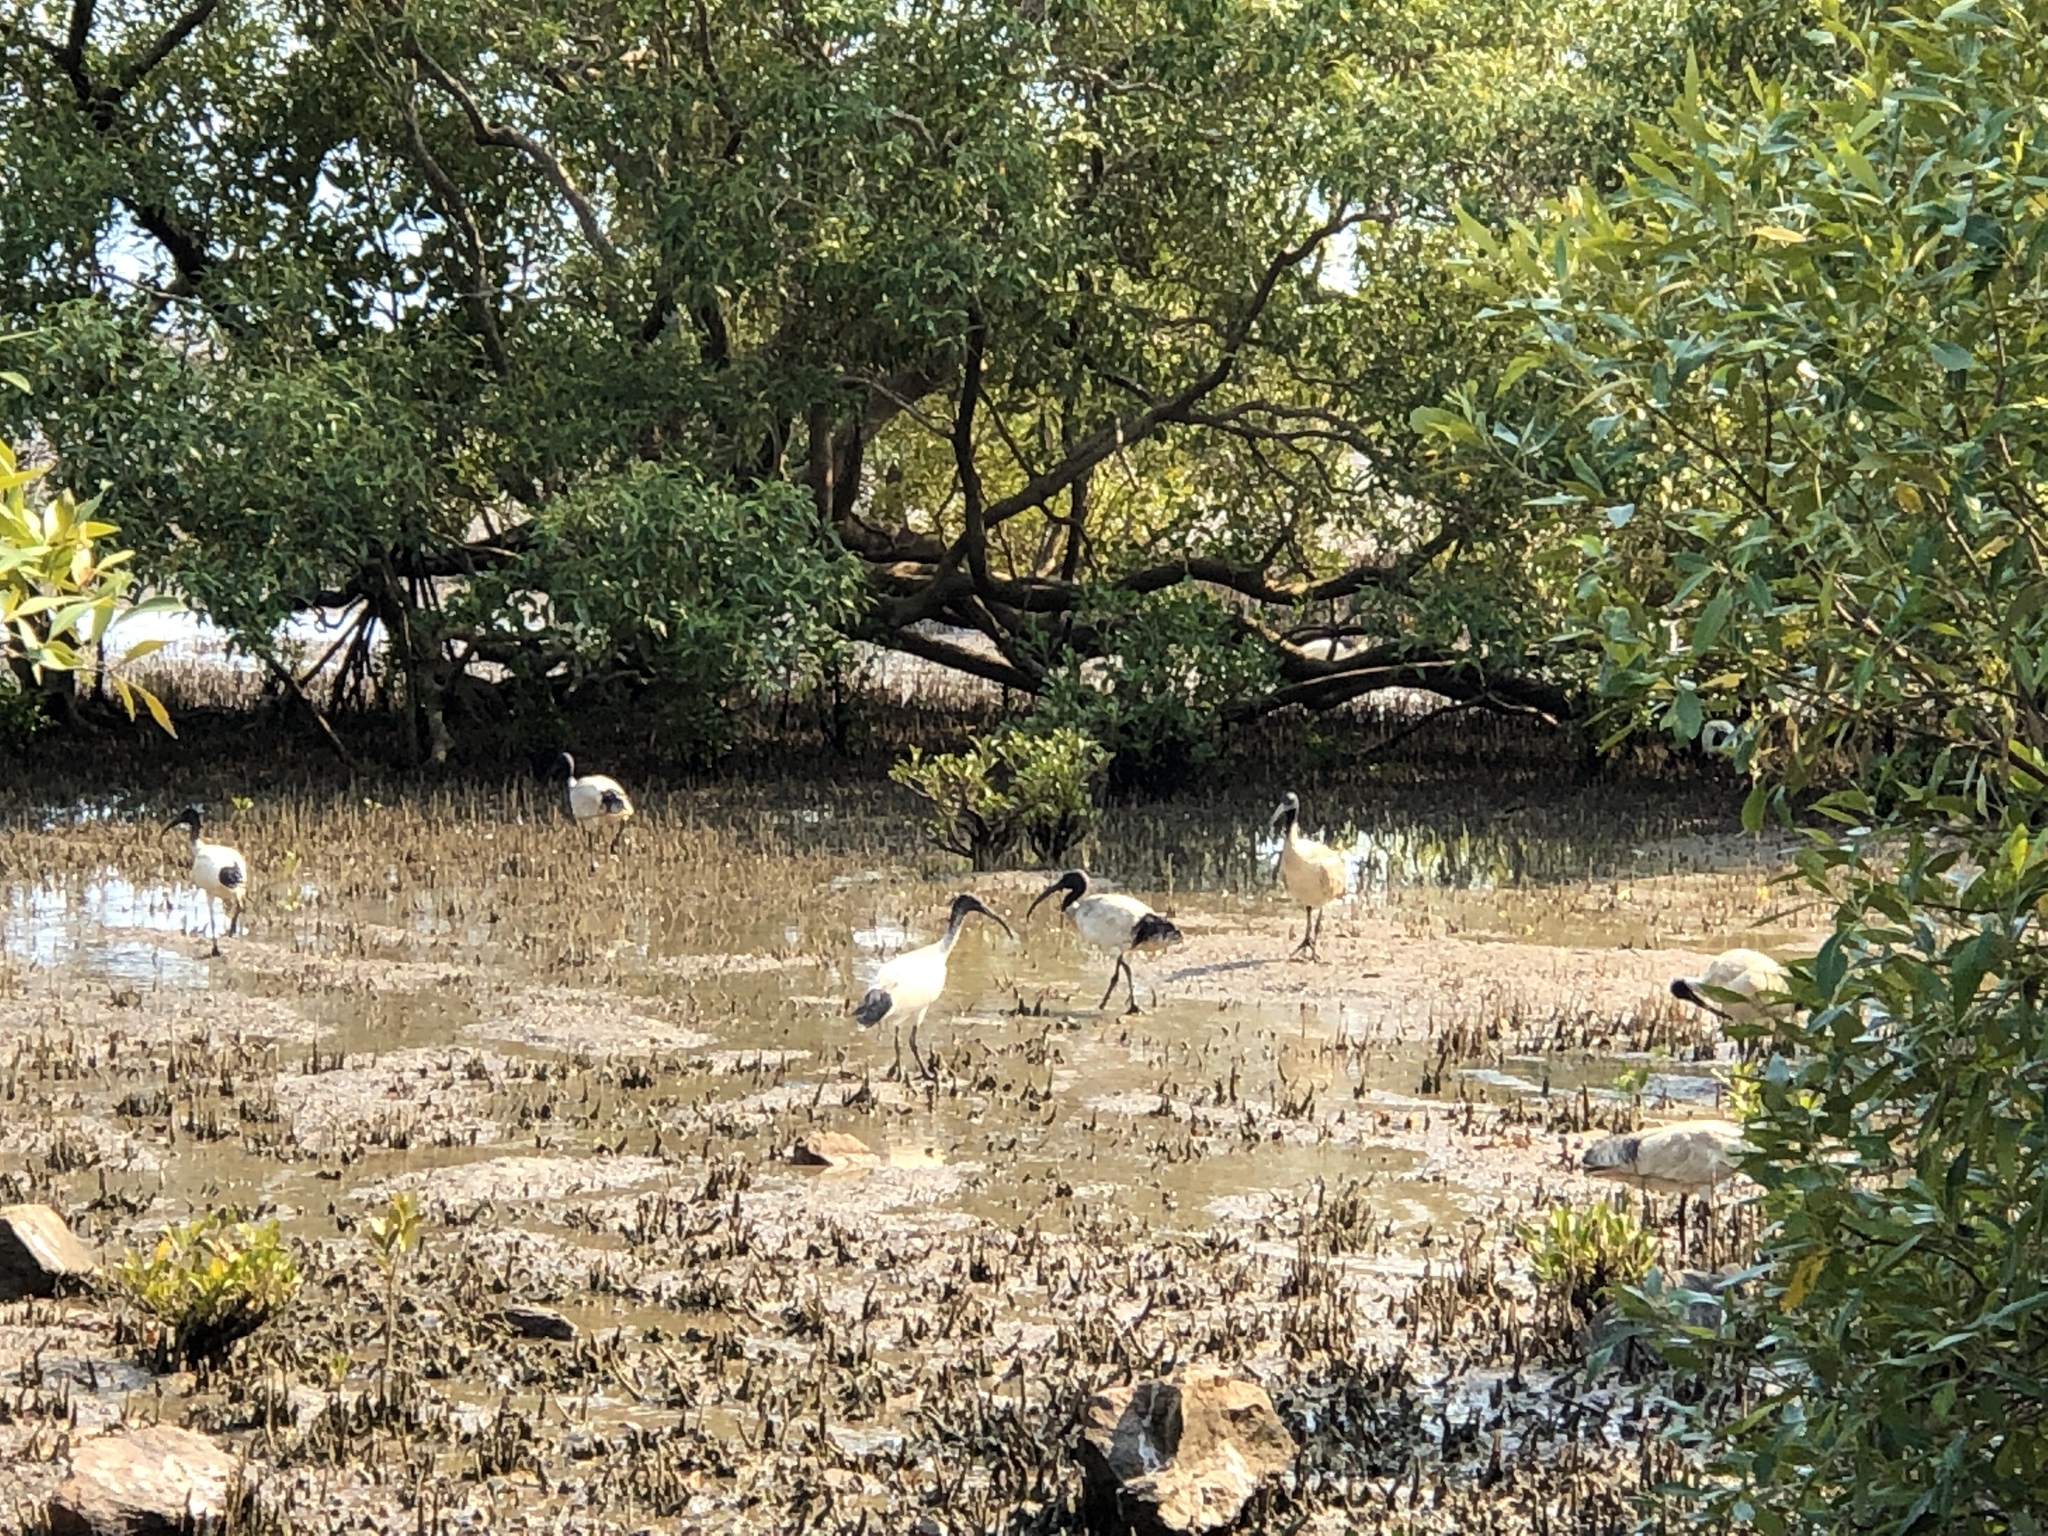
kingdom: Animalia
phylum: Chordata
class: Aves
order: Pelecaniformes
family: Threskiornithidae
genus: Threskiornis
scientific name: Threskiornis molucca
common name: Australian white ibis
